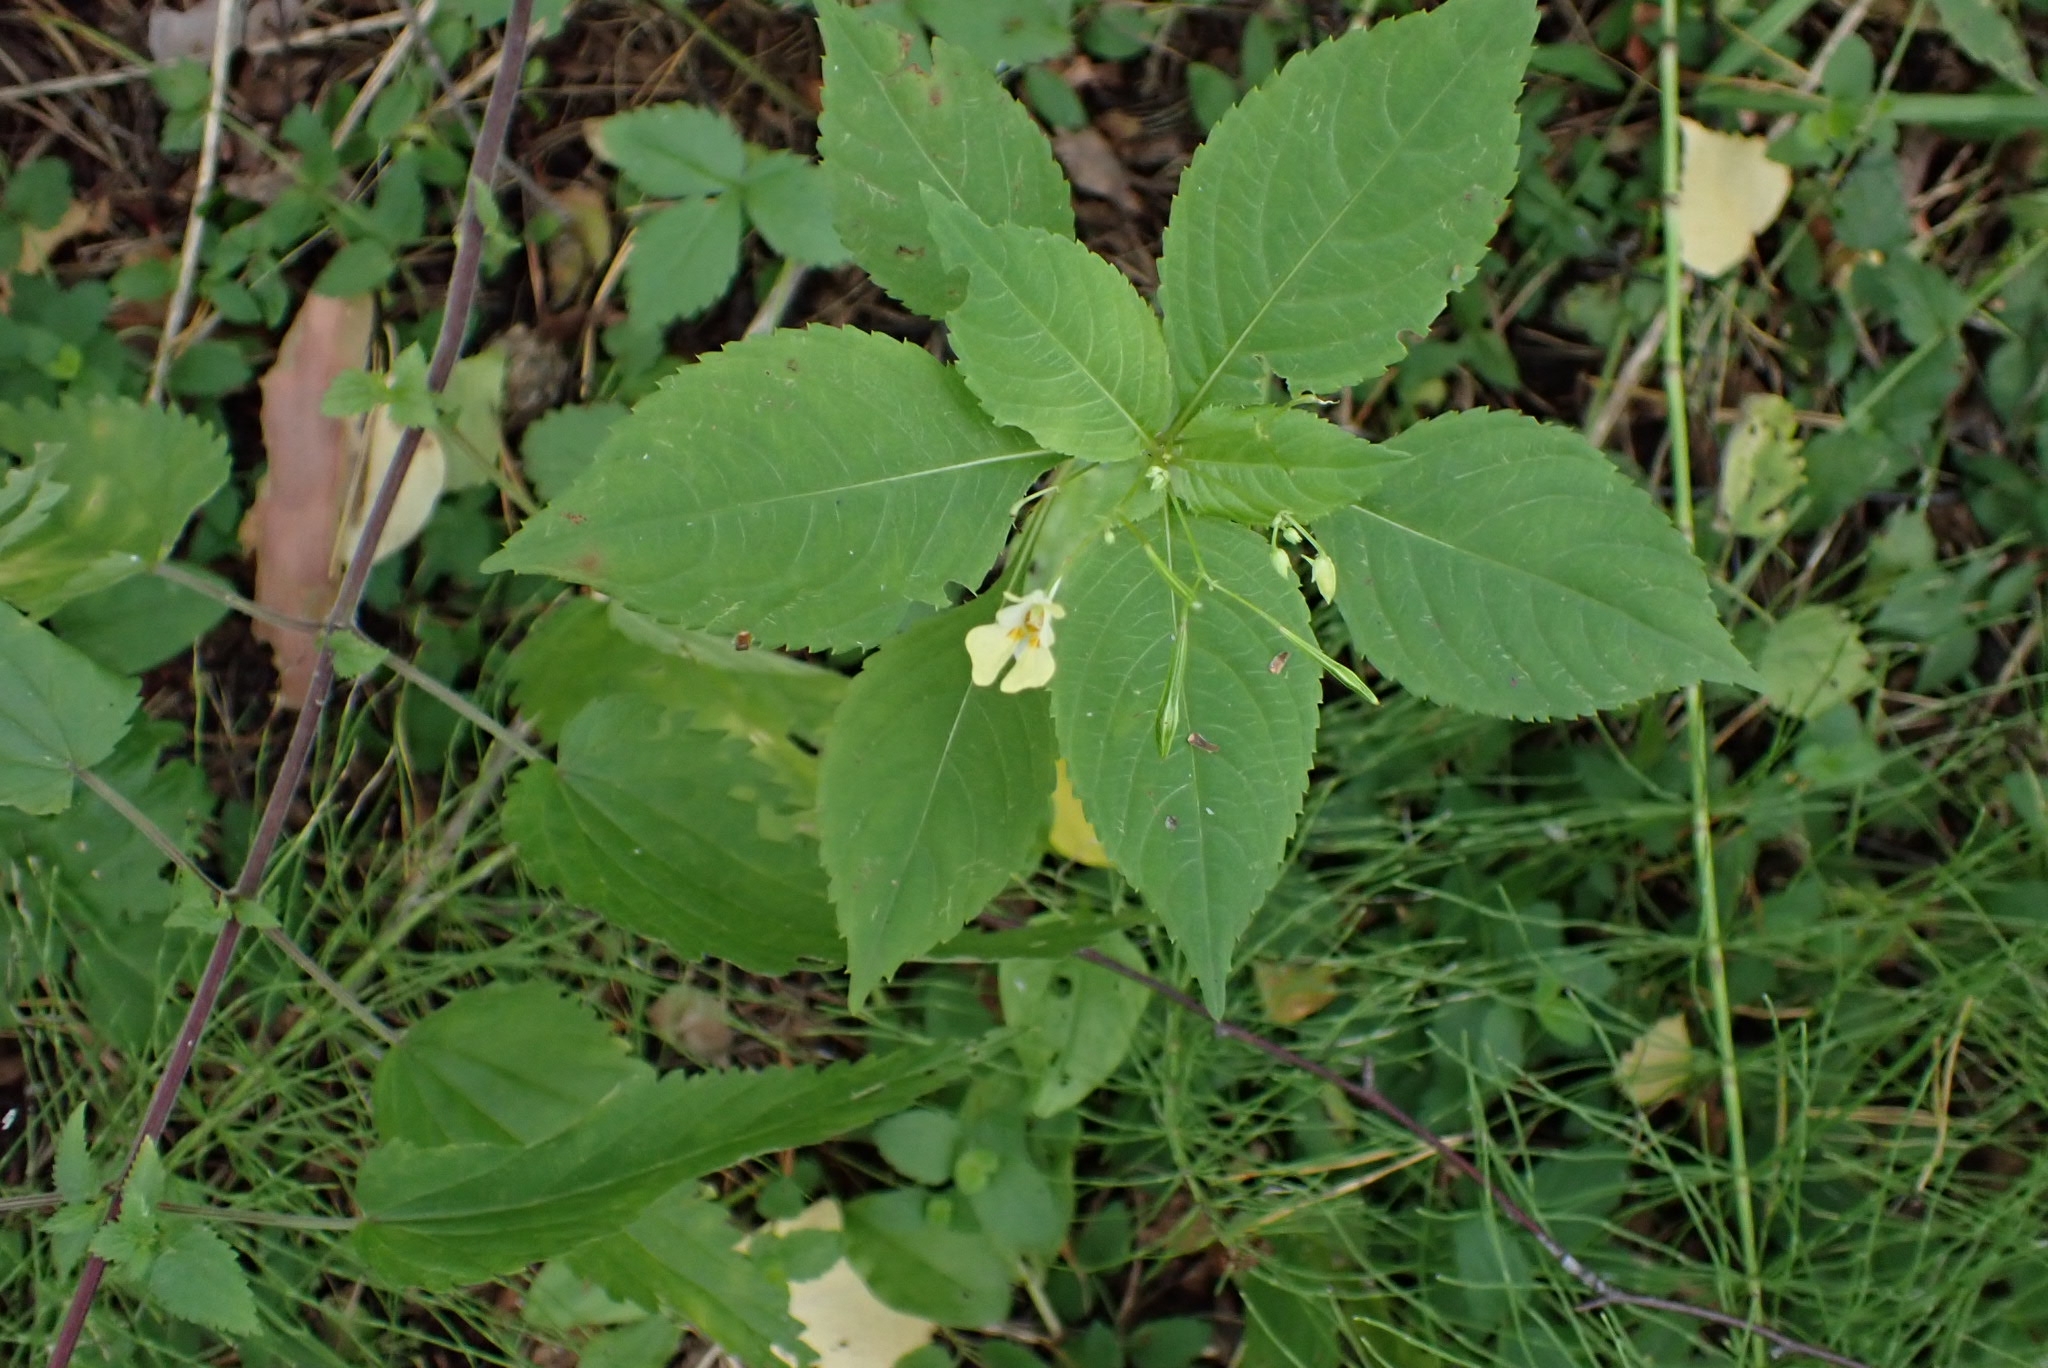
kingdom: Plantae
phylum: Tracheophyta
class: Magnoliopsida
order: Ericales
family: Balsaminaceae
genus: Impatiens
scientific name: Impatiens parviflora
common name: Small balsam
